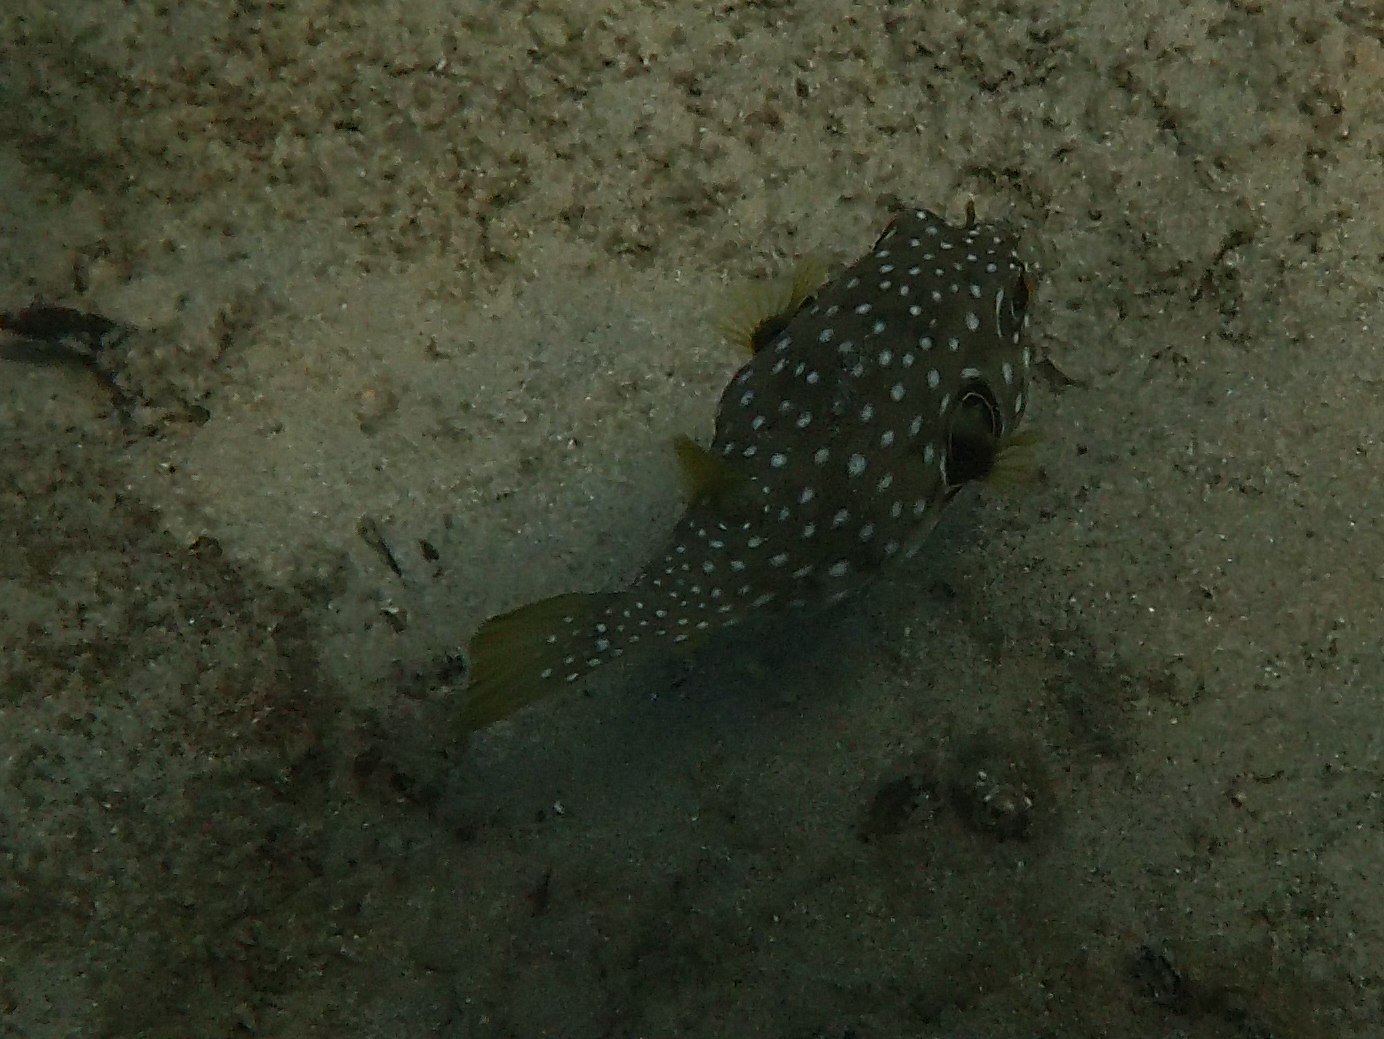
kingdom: Animalia
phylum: Chordata
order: Tetraodontiformes
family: Tetraodontidae
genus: Arothron
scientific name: Arothron hispidus
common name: Stripebelly puffer
